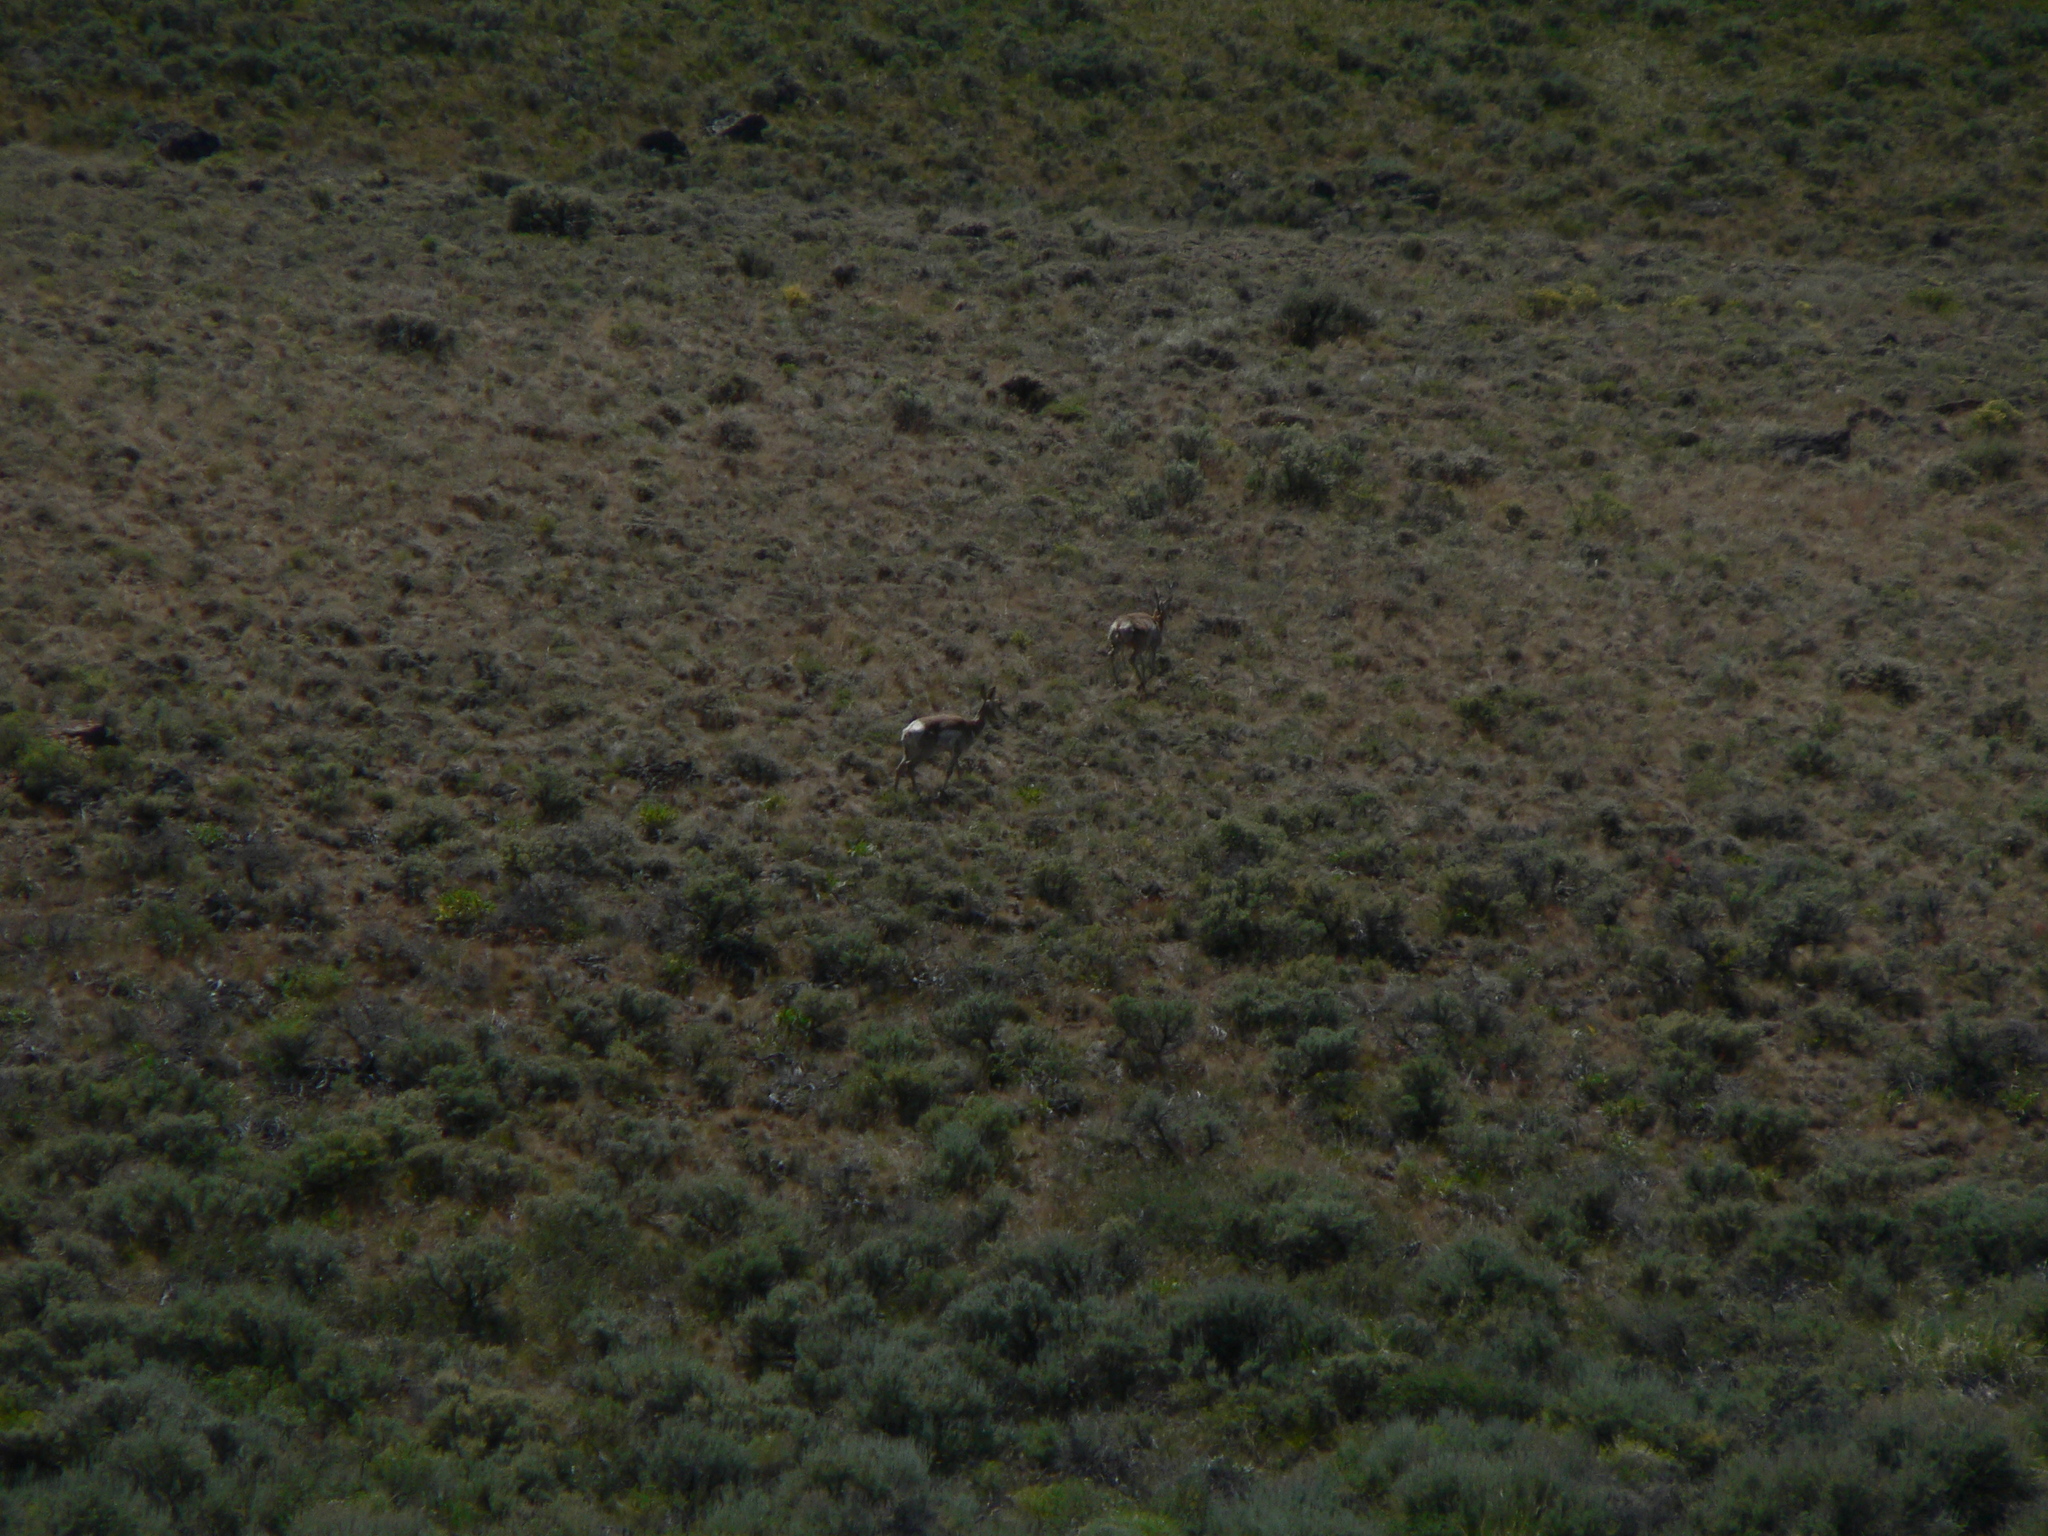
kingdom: Animalia
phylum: Chordata
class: Mammalia
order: Artiodactyla
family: Antilocapridae
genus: Antilocapra
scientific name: Antilocapra americana
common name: Pronghorn
